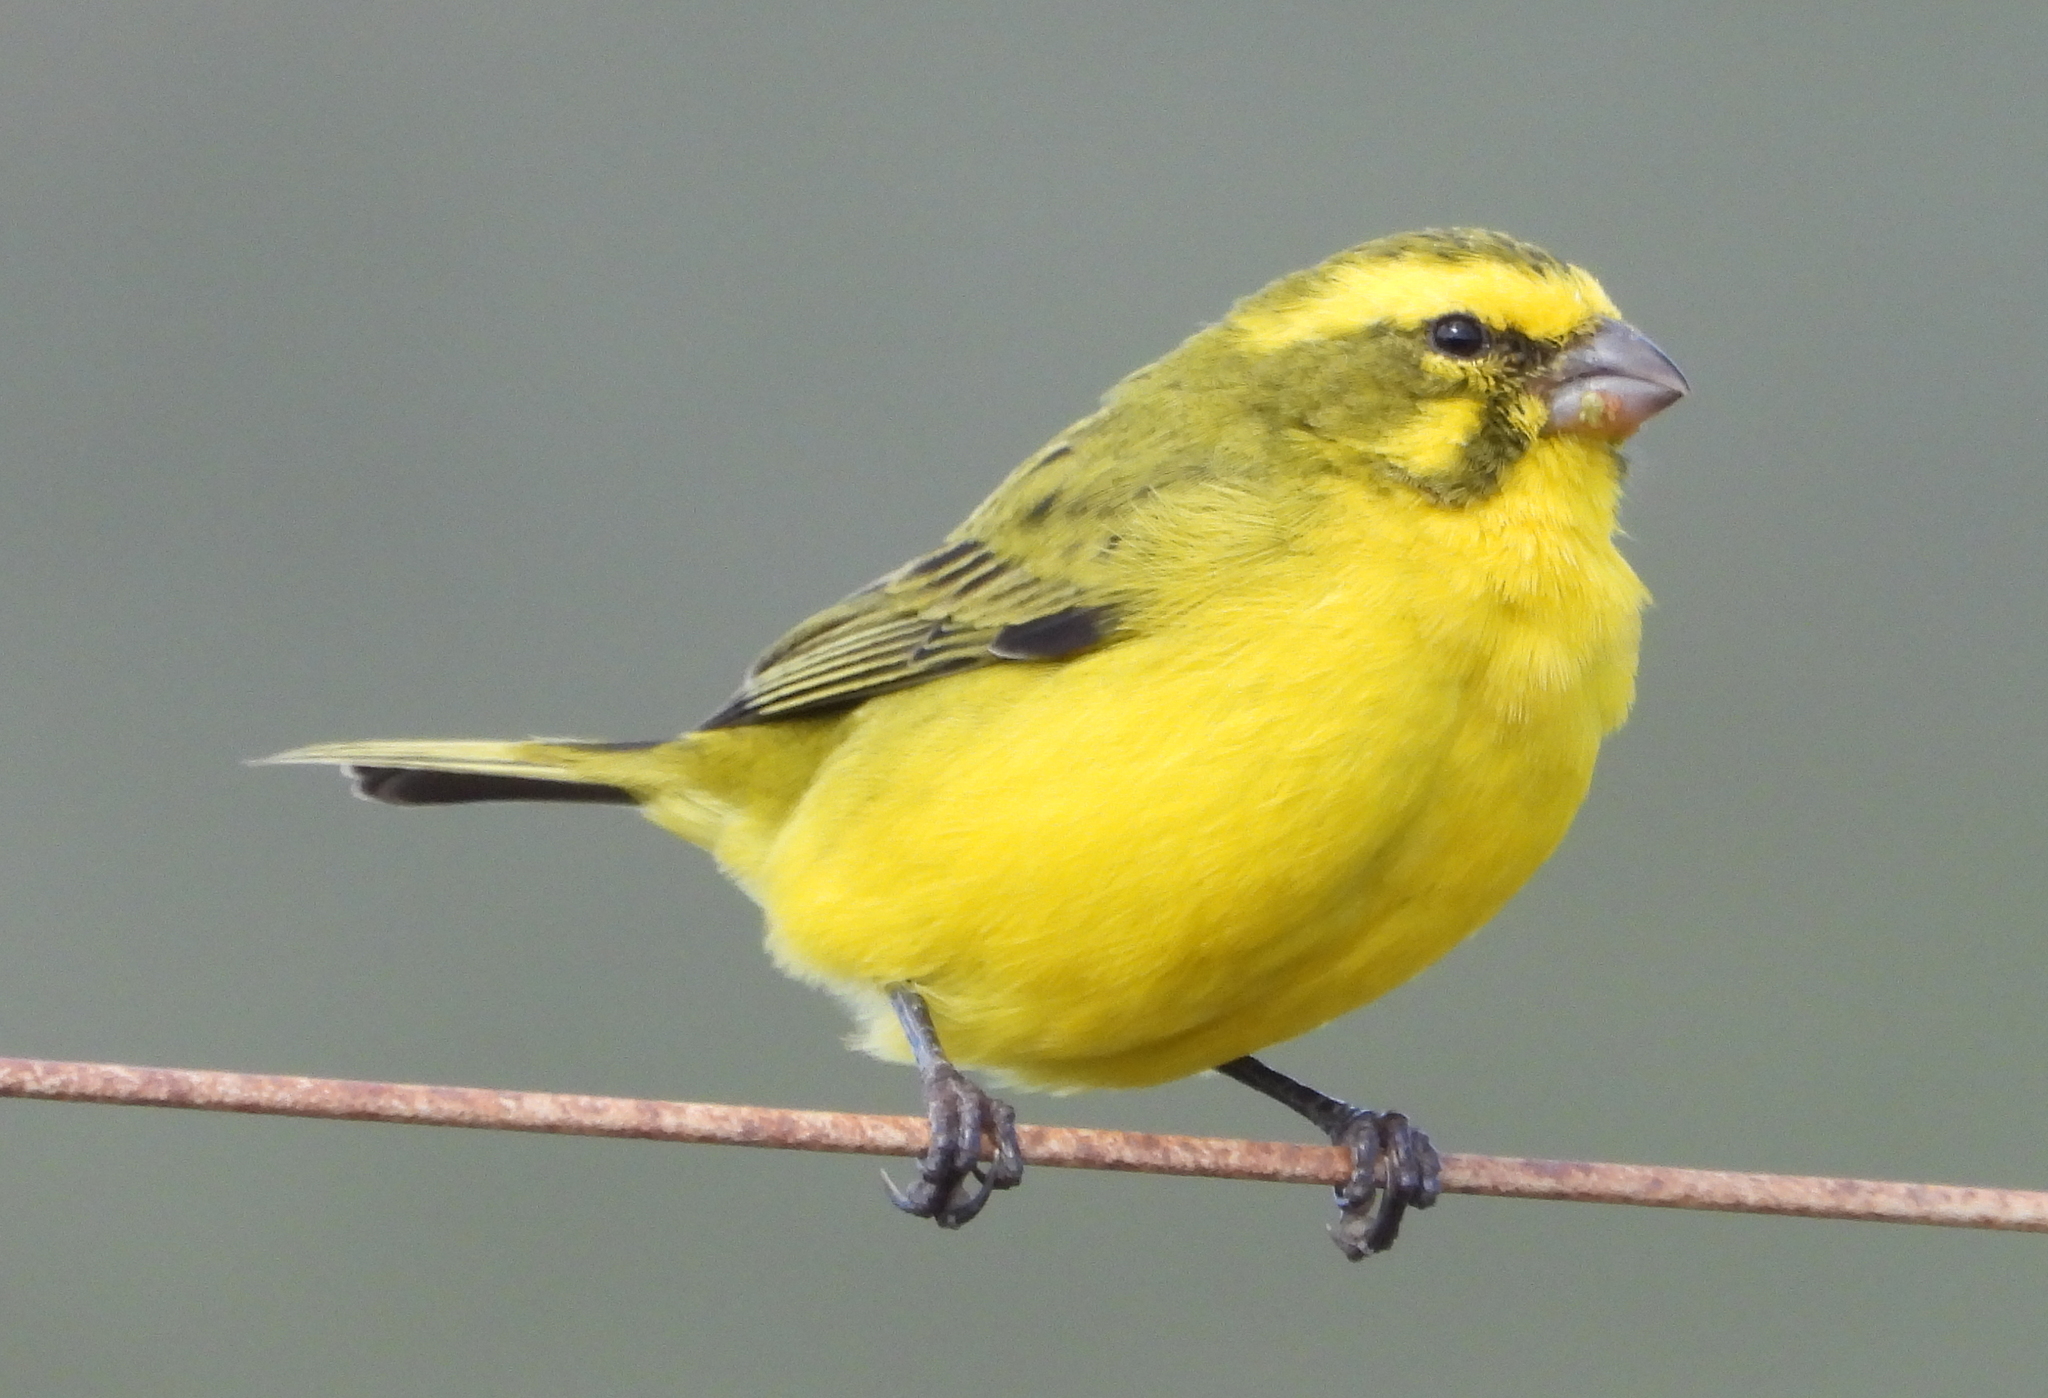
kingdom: Animalia
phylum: Chordata
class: Aves
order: Passeriformes
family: Fringillidae
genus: Crithagra
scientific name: Crithagra flaviventris
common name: Yellow canary
